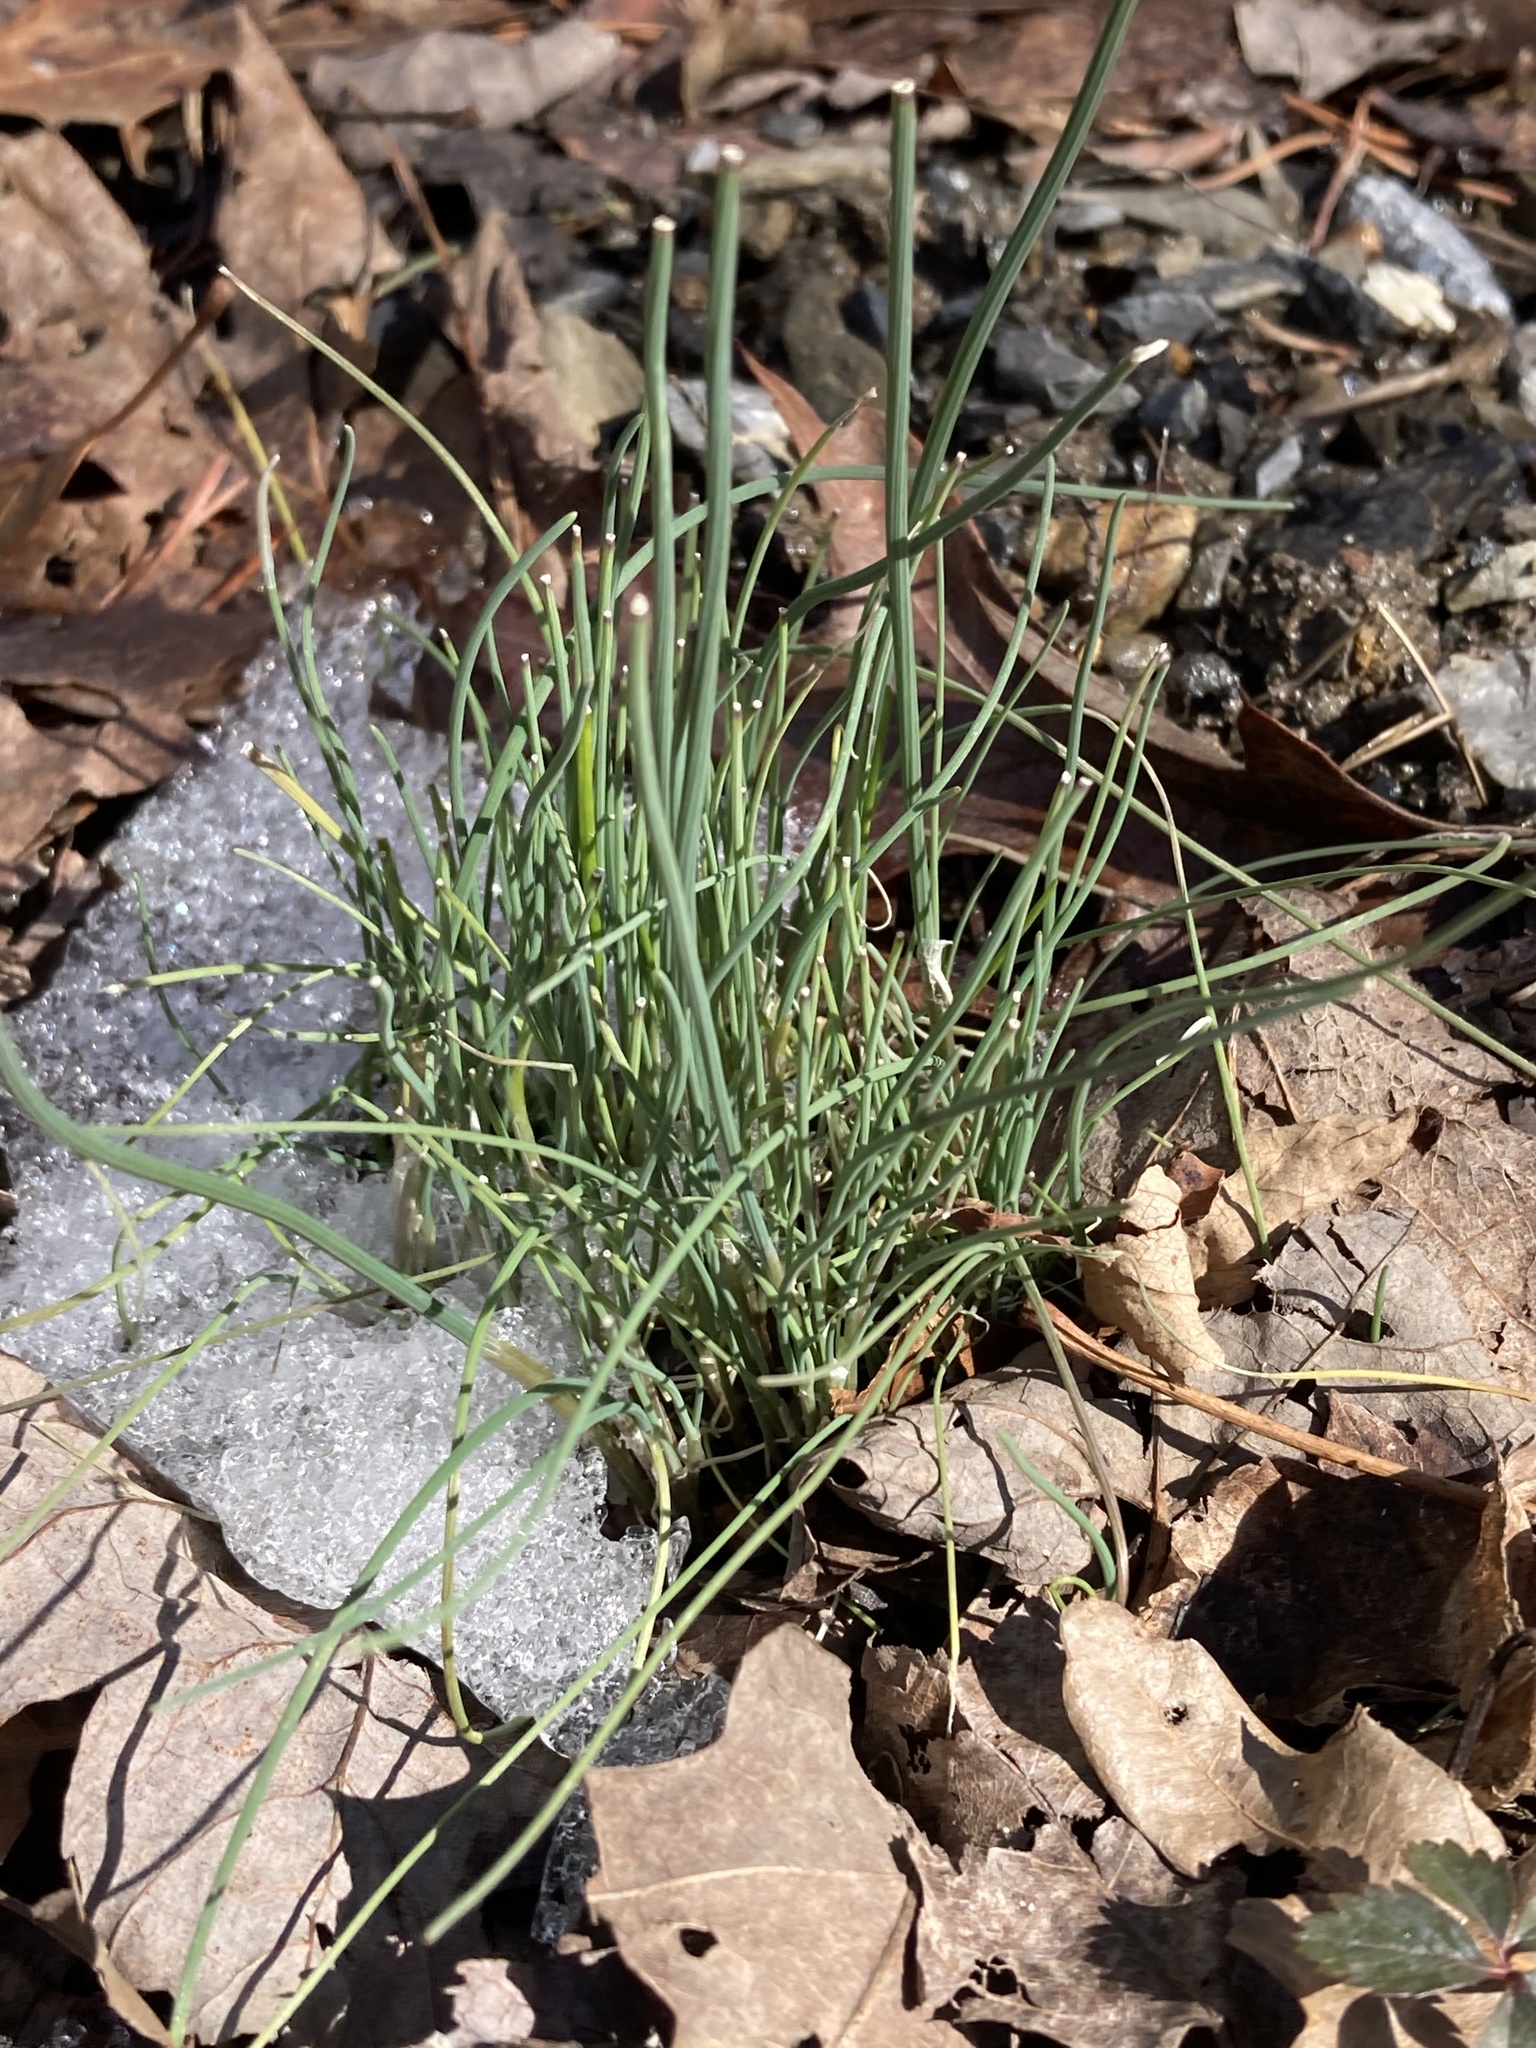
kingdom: Plantae
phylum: Tracheophyta
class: Liliopsida
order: Asparagales
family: Amaryllidaceae
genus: Allium
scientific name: Allium vineale
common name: Crow garlic
